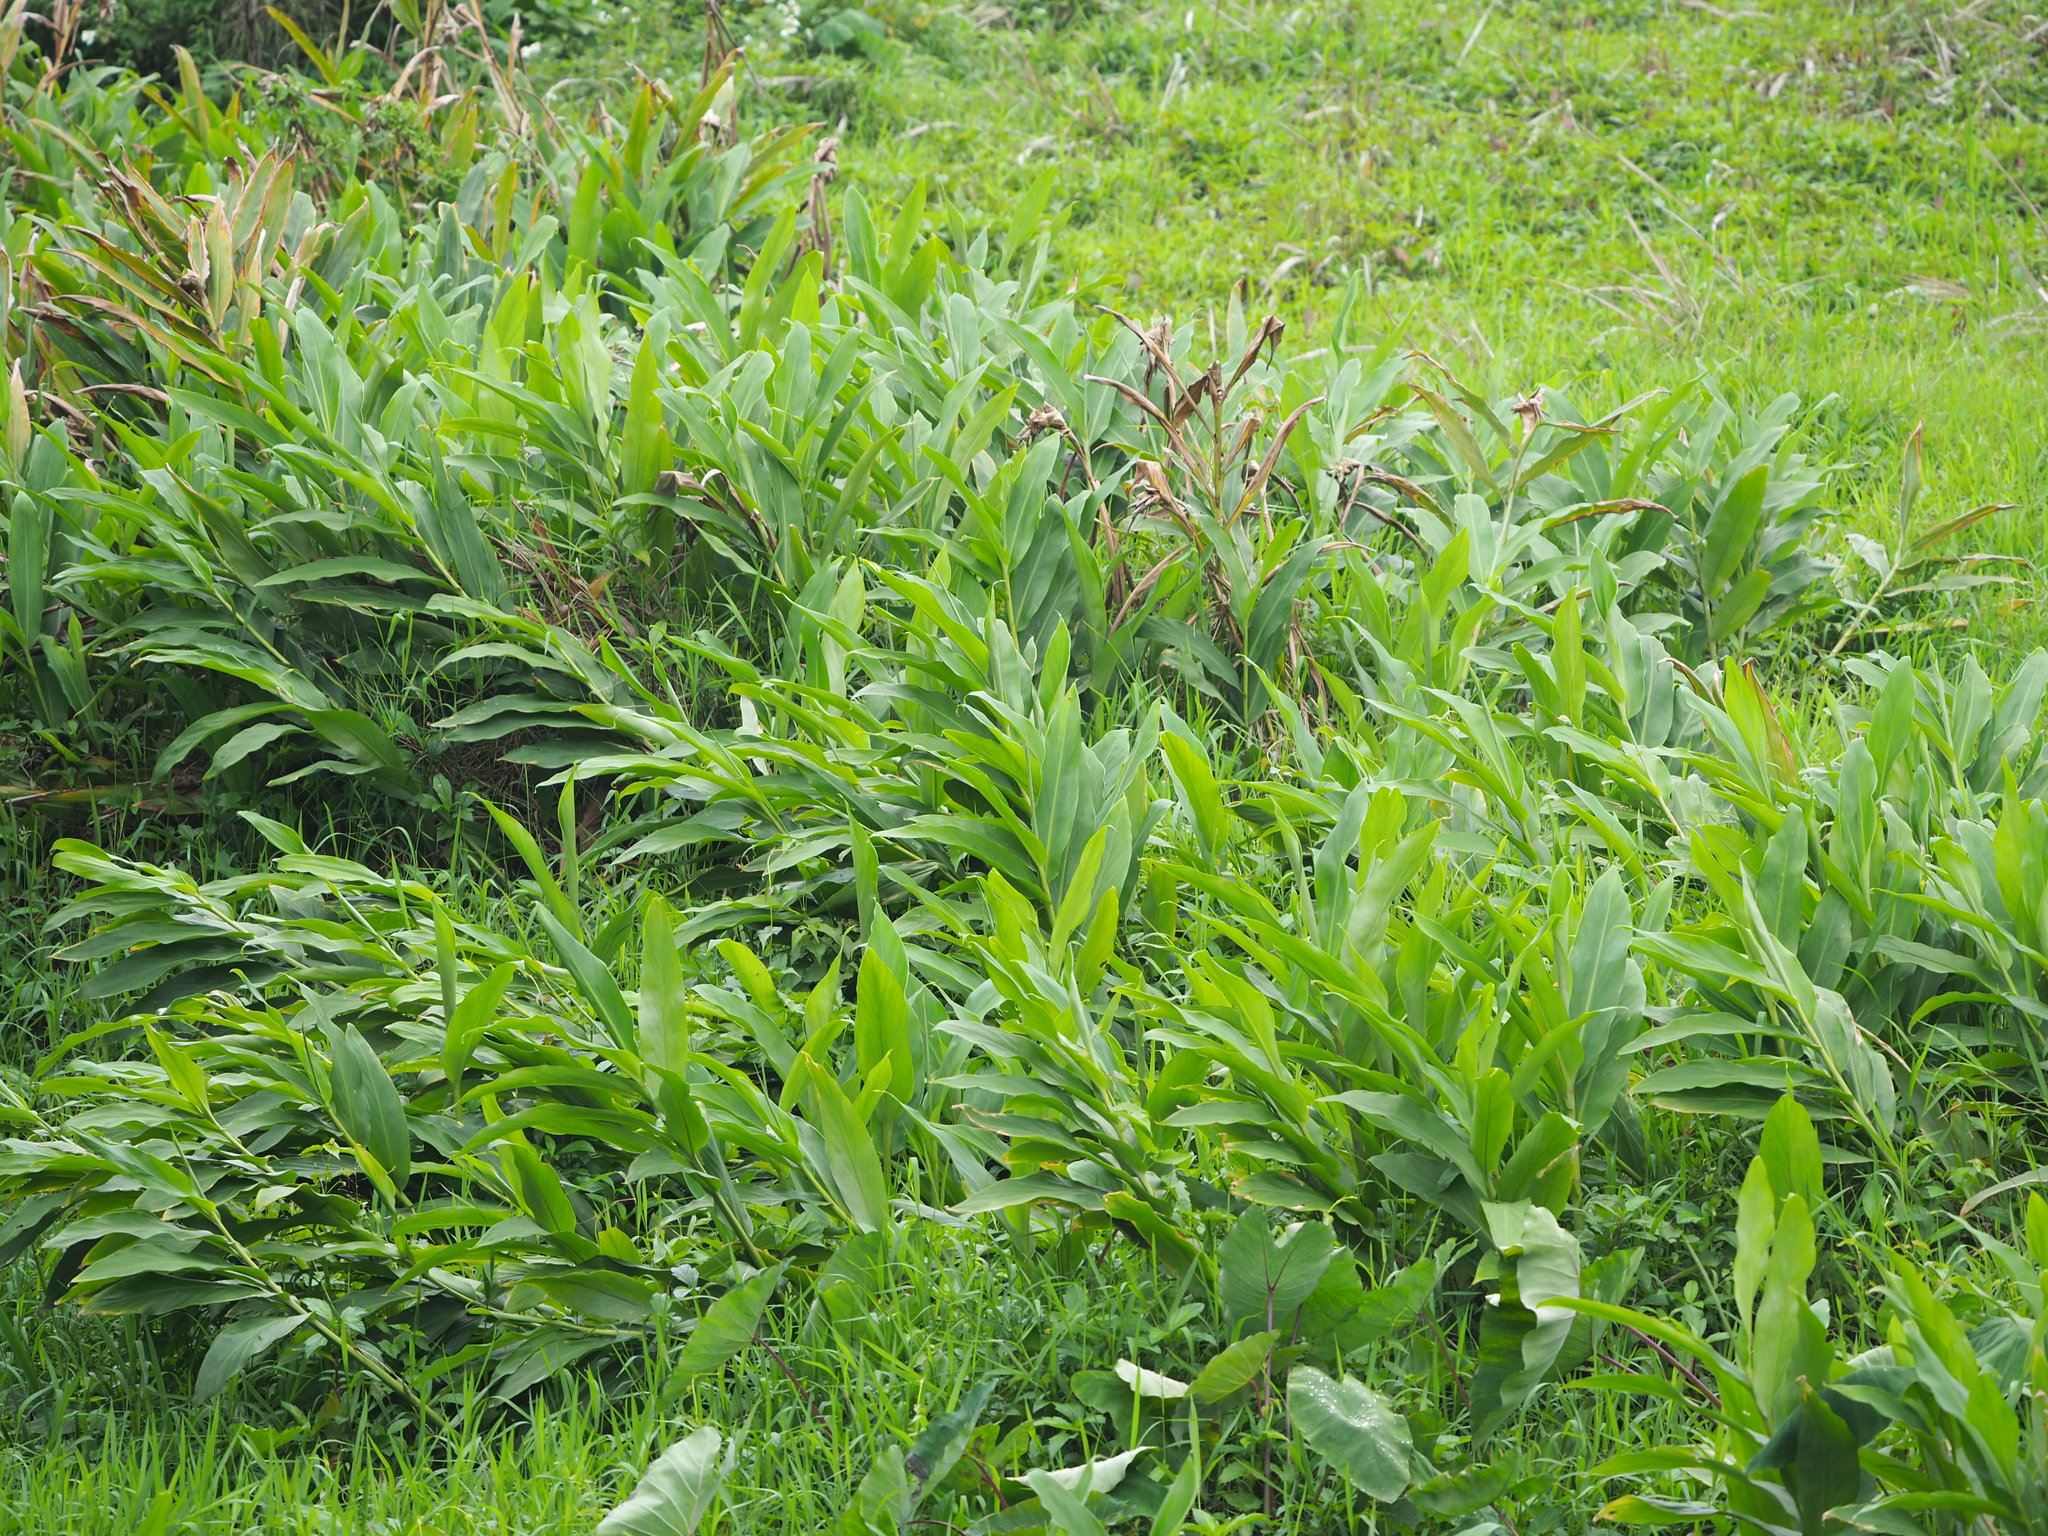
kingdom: Plantae
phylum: Tracheophyta
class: Liliopsida
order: Zingiberales
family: Zingiberaceae
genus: Hedychium
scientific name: Hedychium coronarium
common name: White garland-lily
